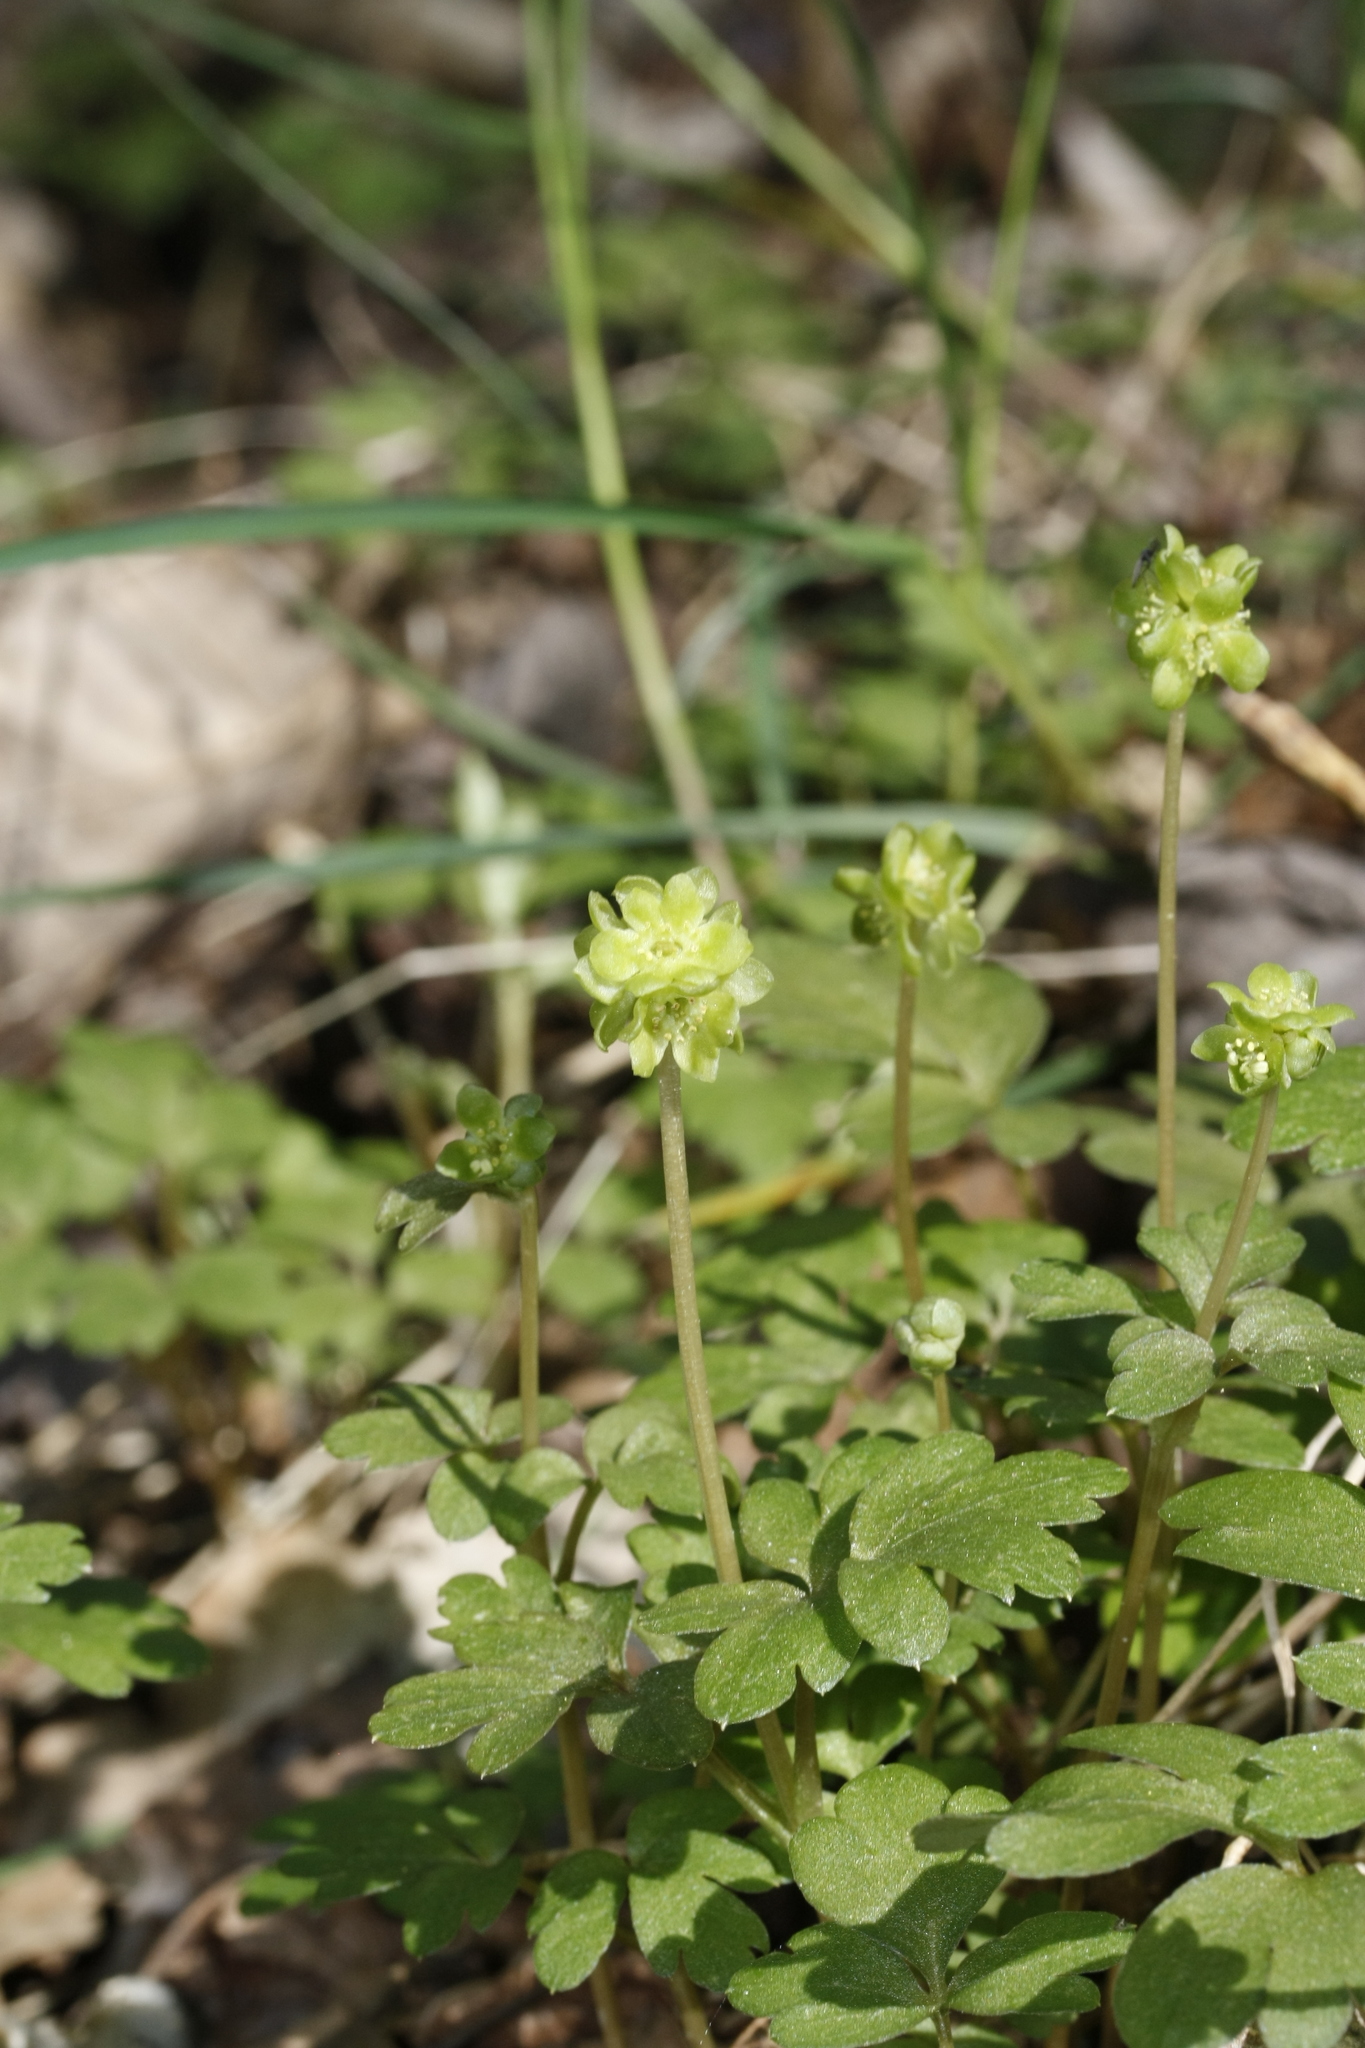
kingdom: Plantae
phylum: Tracheophyta
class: Magnoliopsida
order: Dipsacales
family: Viburnaceae
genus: Adoxa
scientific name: Adoxa moschatellina
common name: Moschatel
